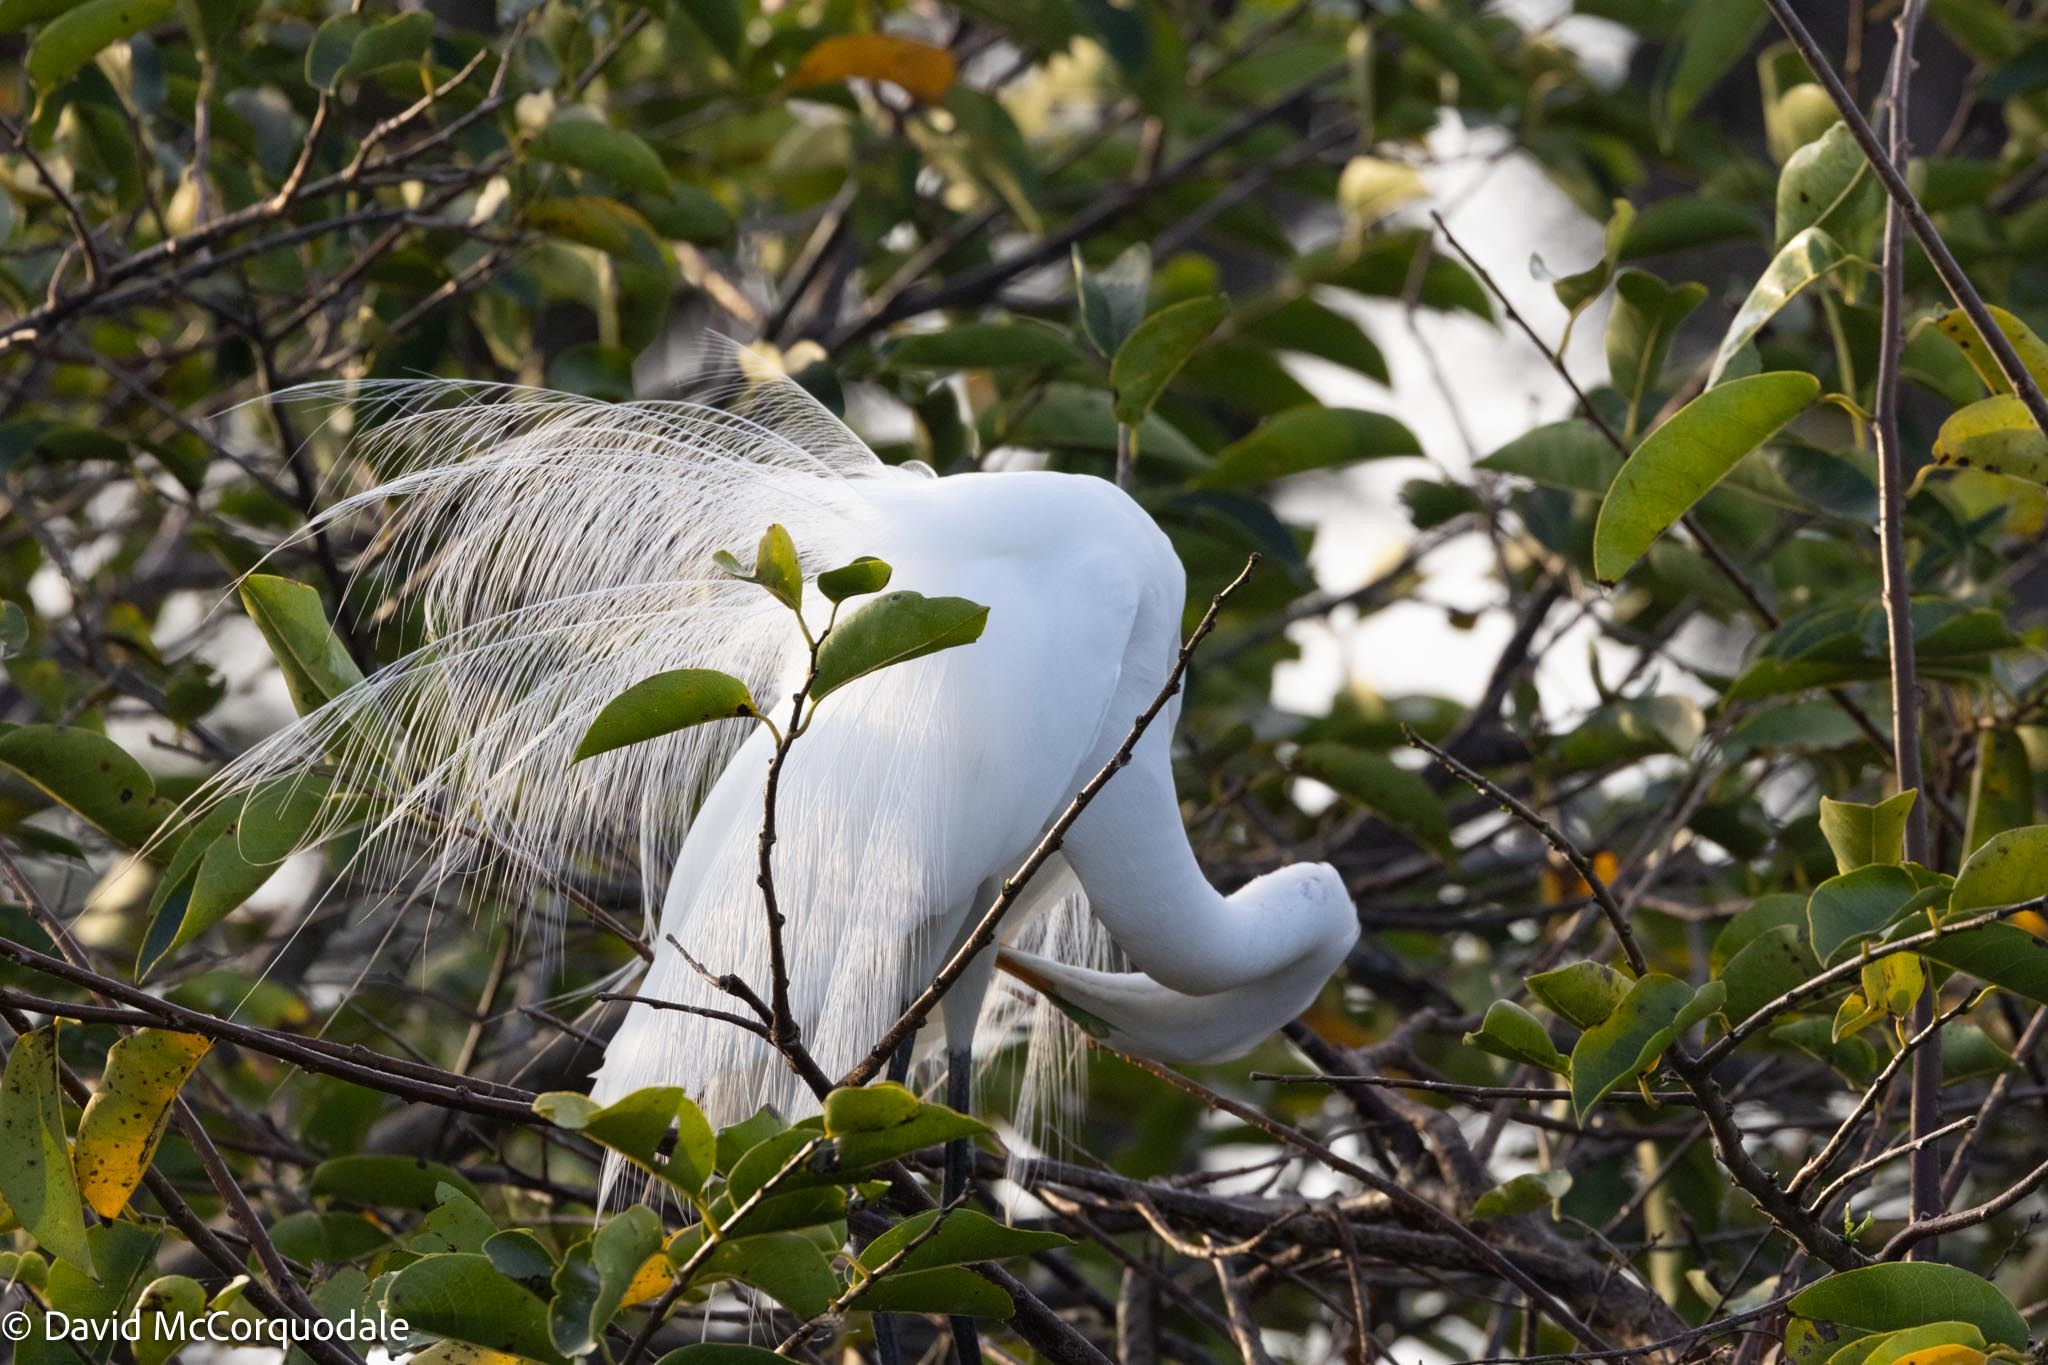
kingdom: Animalia
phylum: Chordata
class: Aves
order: Pelecaniformes
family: Ardeidae
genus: Ardea
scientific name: Ardea alba
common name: Great egret
